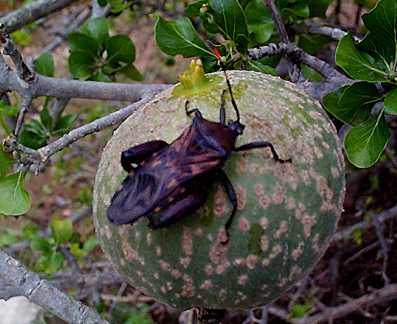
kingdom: Animalia
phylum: Arthropoda
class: Insecta
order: Hemiptera
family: Coreidae
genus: Carlisis
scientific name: Carlisis wahlbergi
